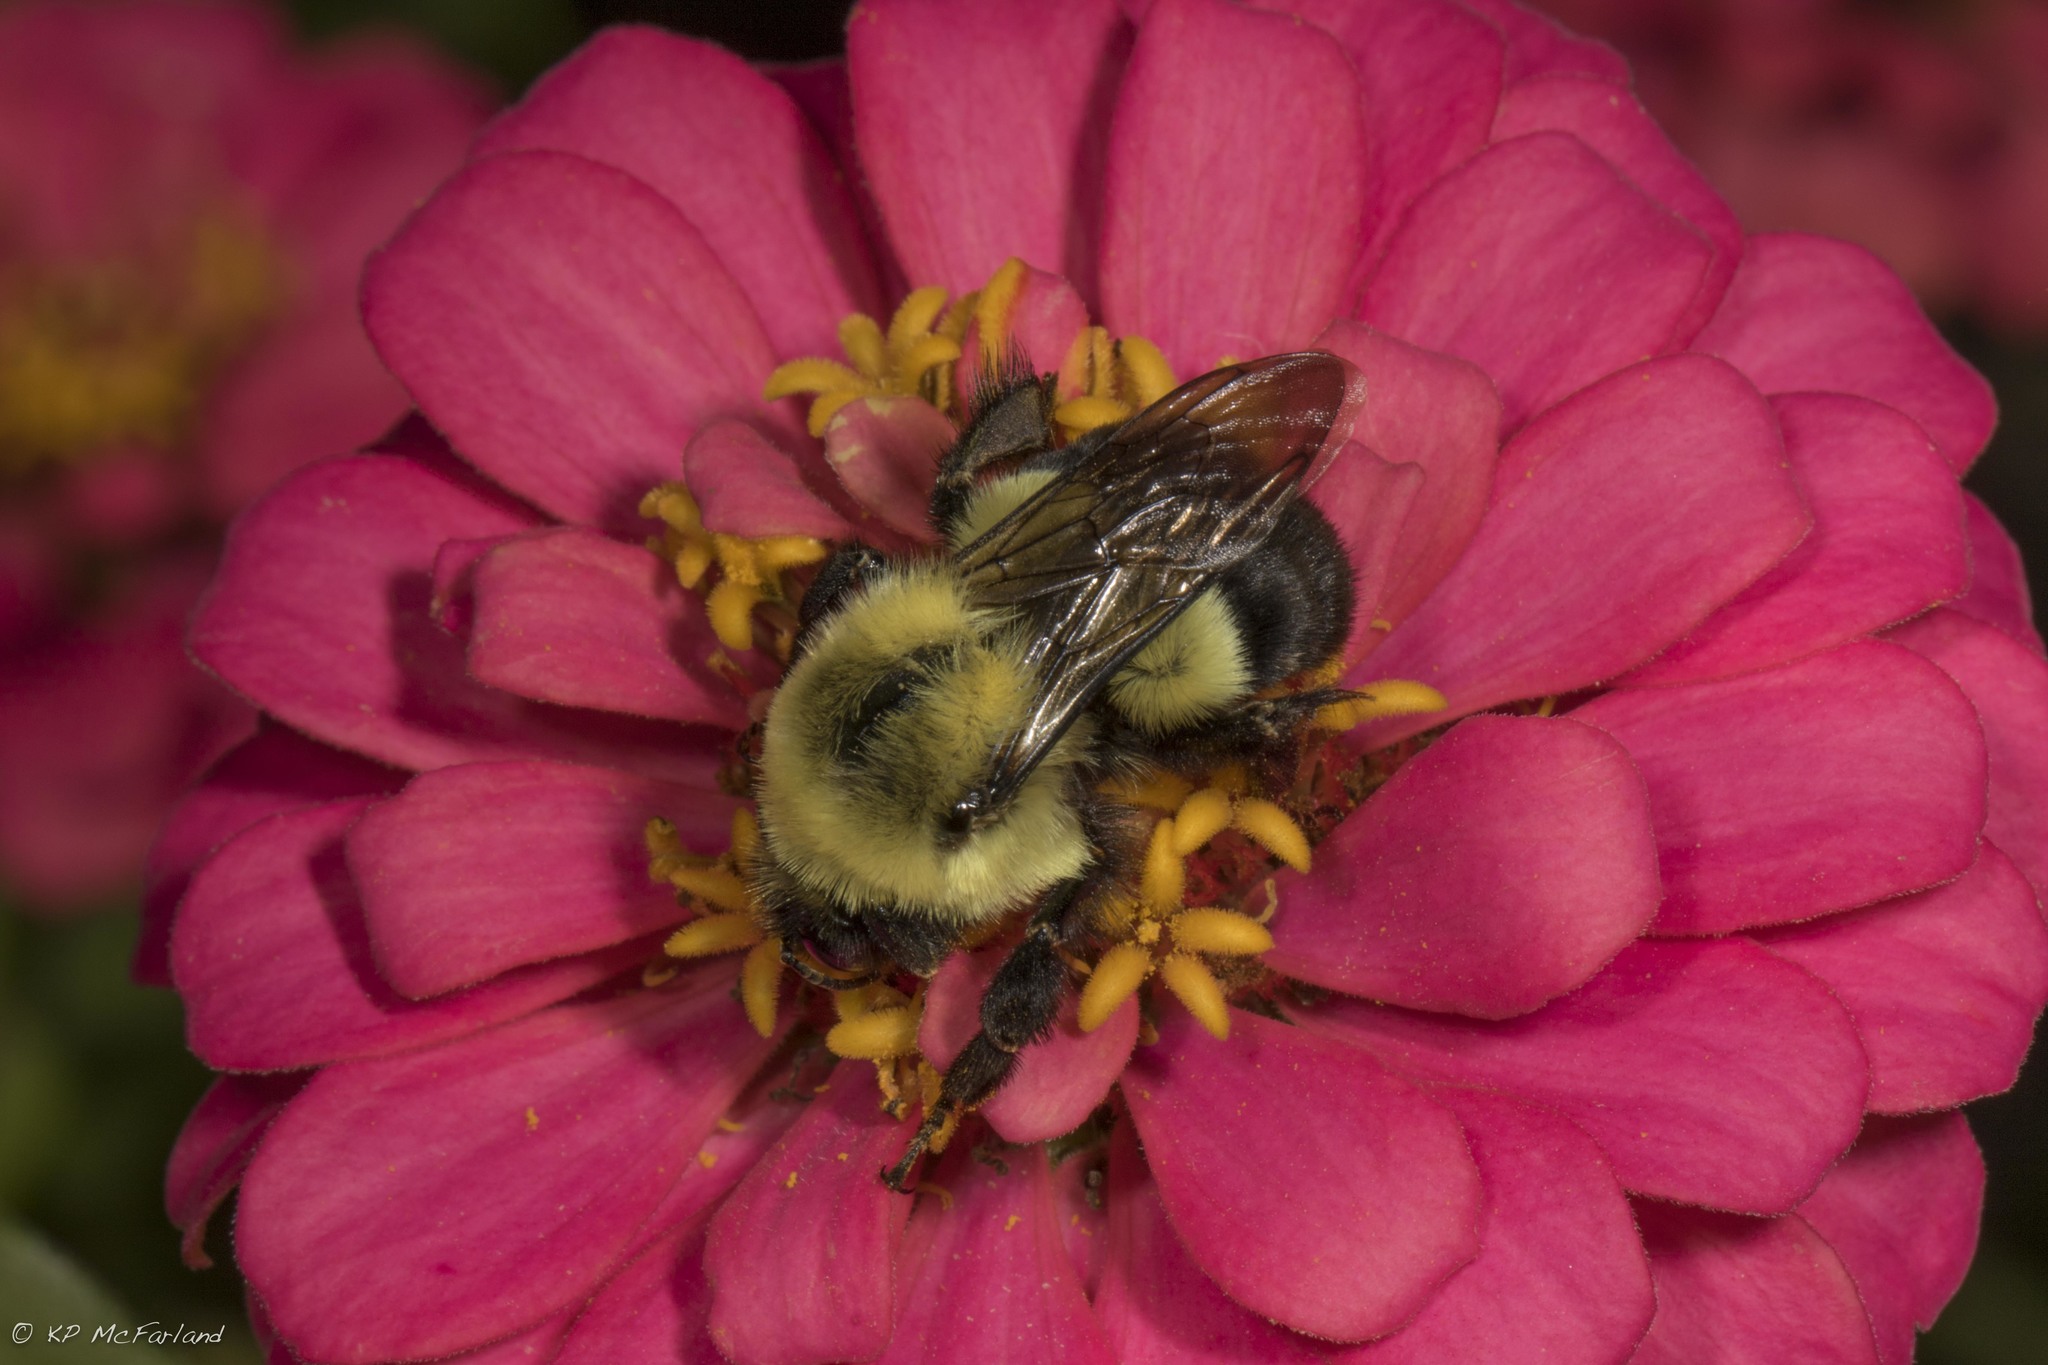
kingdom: Animalia
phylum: Arthropoda
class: Insecta
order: Hymenoptera
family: Apidae
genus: Bombus
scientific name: Bombus impatiens
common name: Common eastern bumble bee
